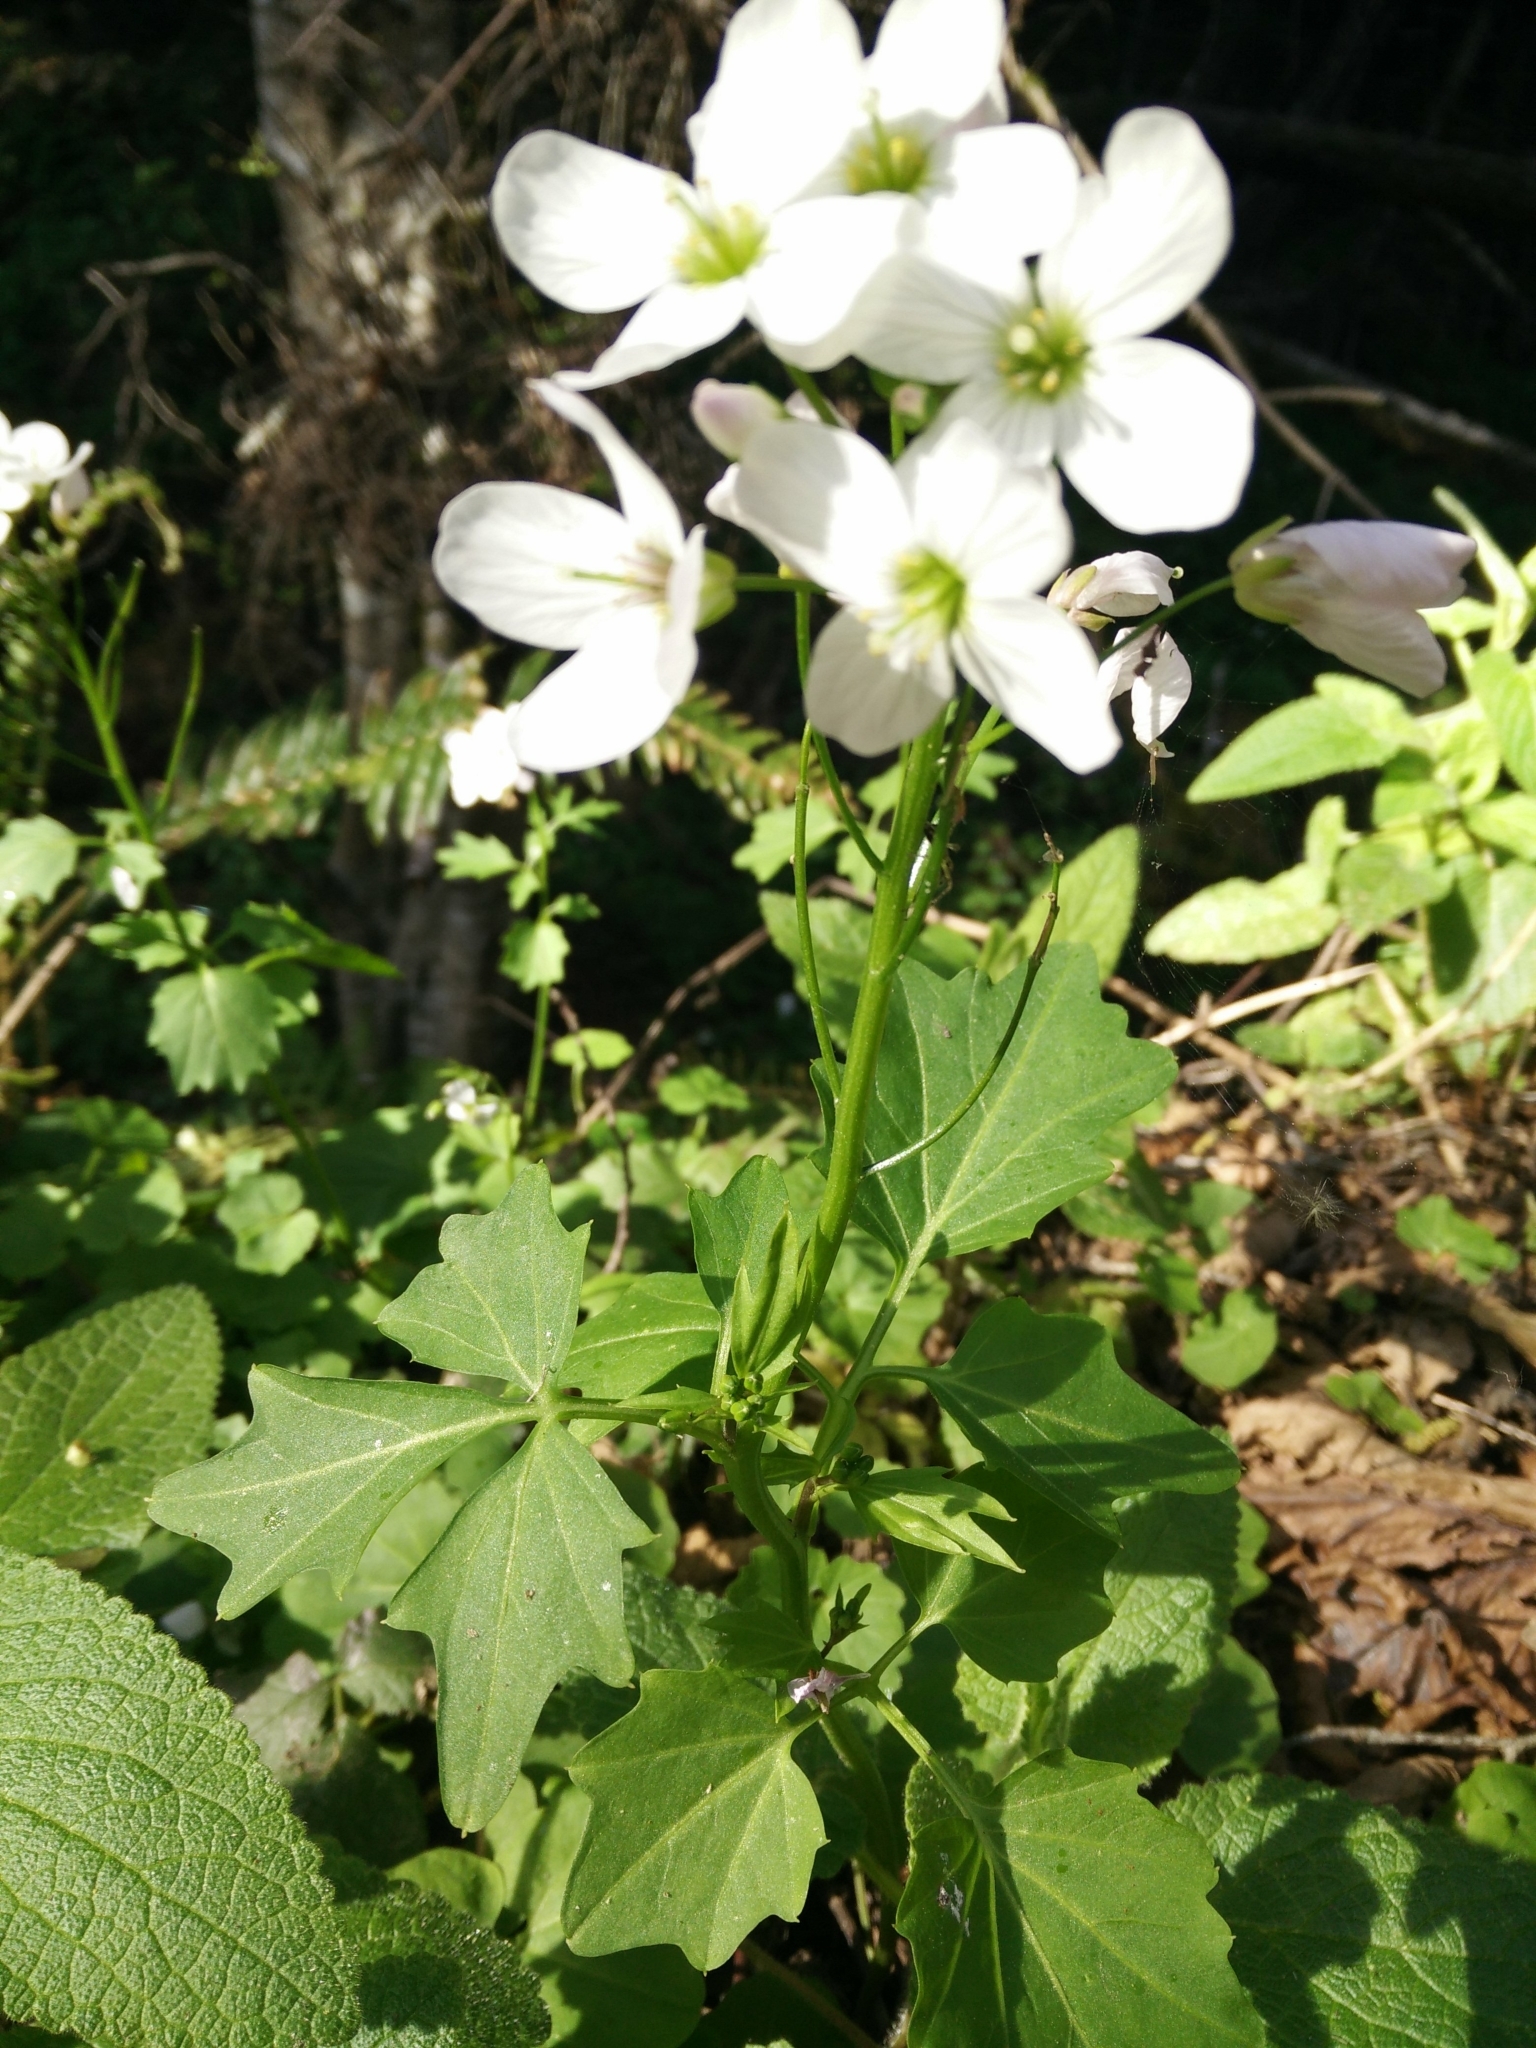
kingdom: Plantae
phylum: Tracheophyta
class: Magnoliopsida
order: Brassicales
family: Brassicaceae
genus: Cardamine
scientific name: Cardamine californica
